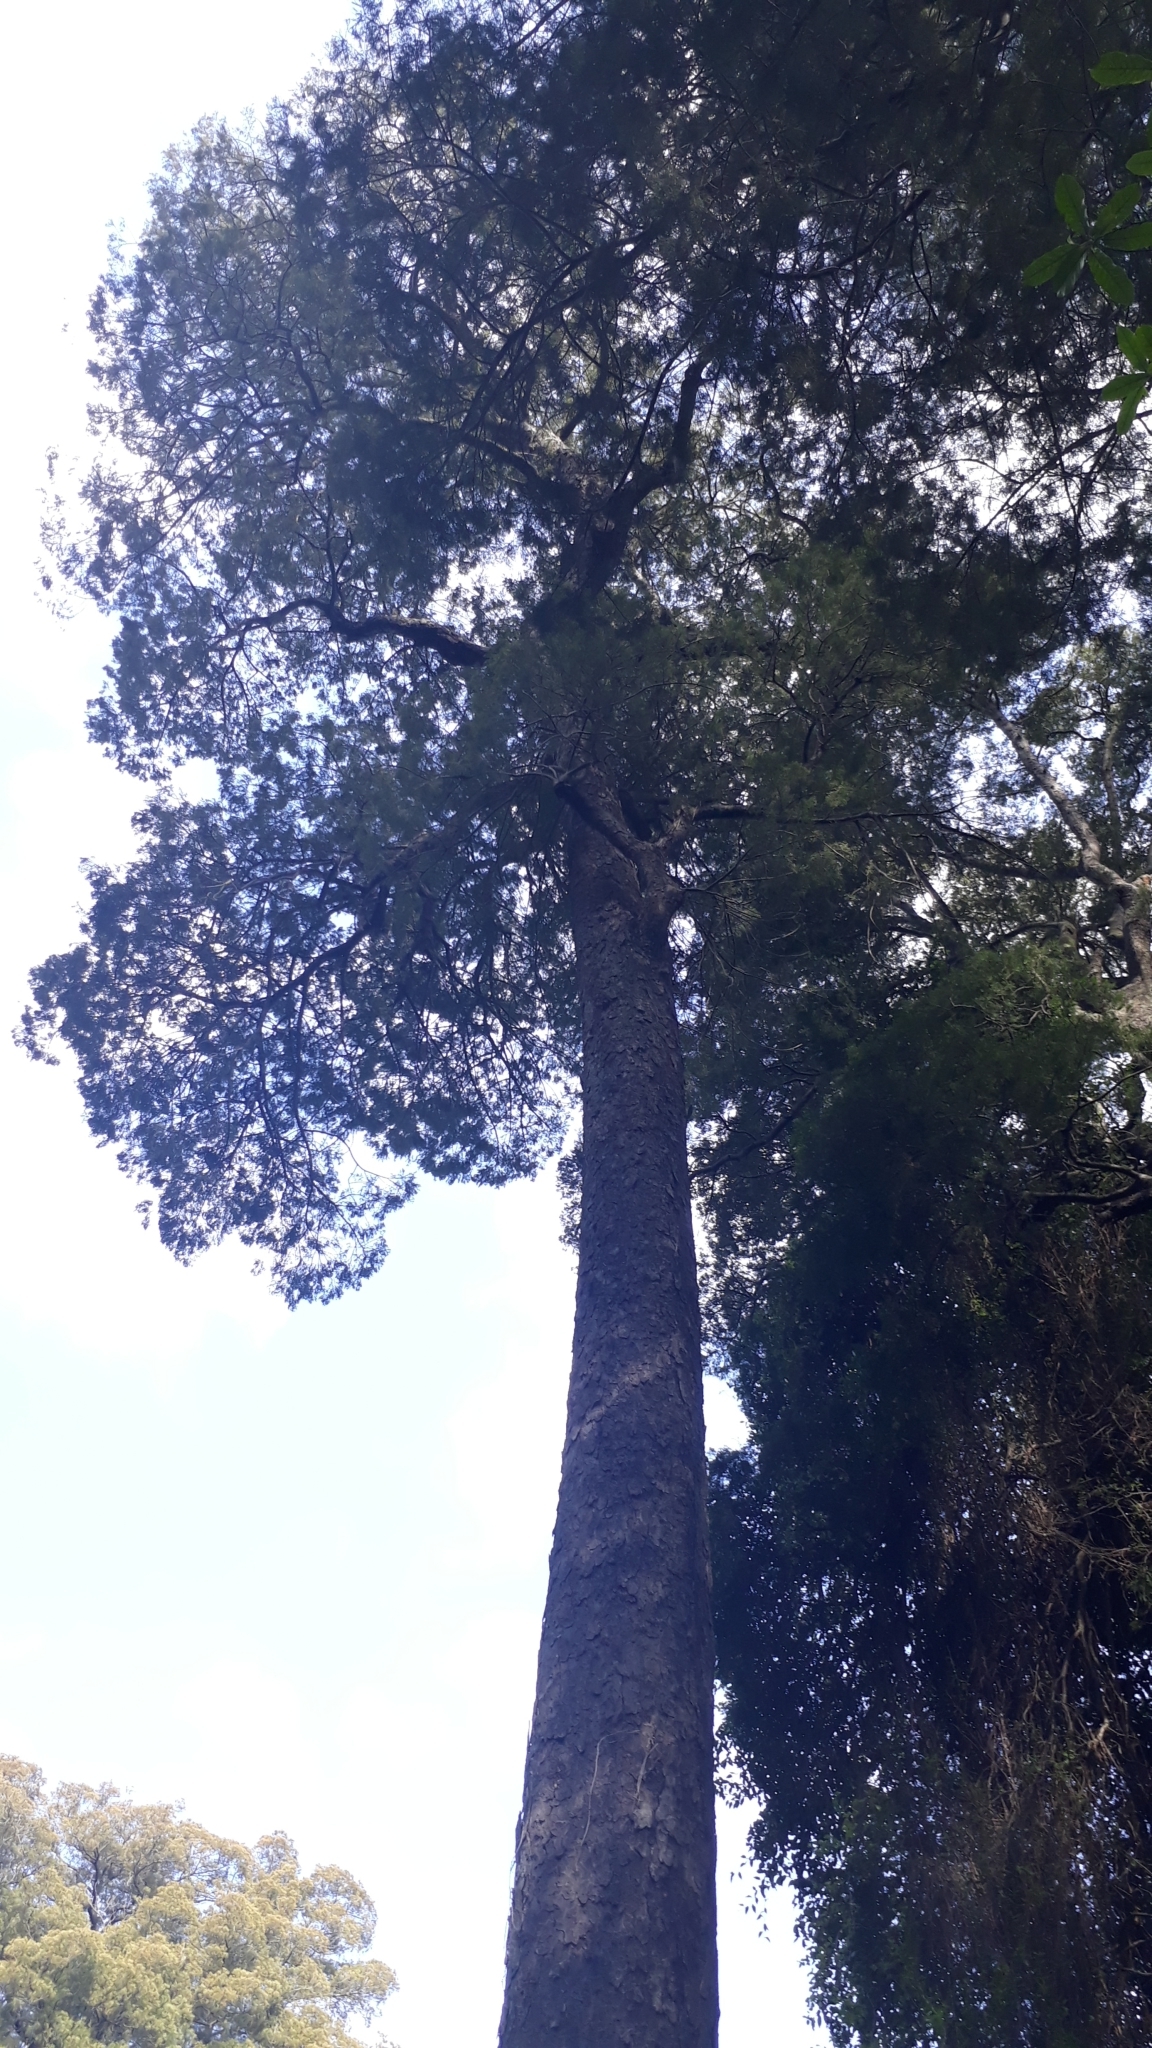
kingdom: Plantae
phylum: Tracheophyta
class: Pinopsida
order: Pinales
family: Podocarpaceae
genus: Dacrycarpus
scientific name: Dacrycarpus dacrydioides
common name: White pine
